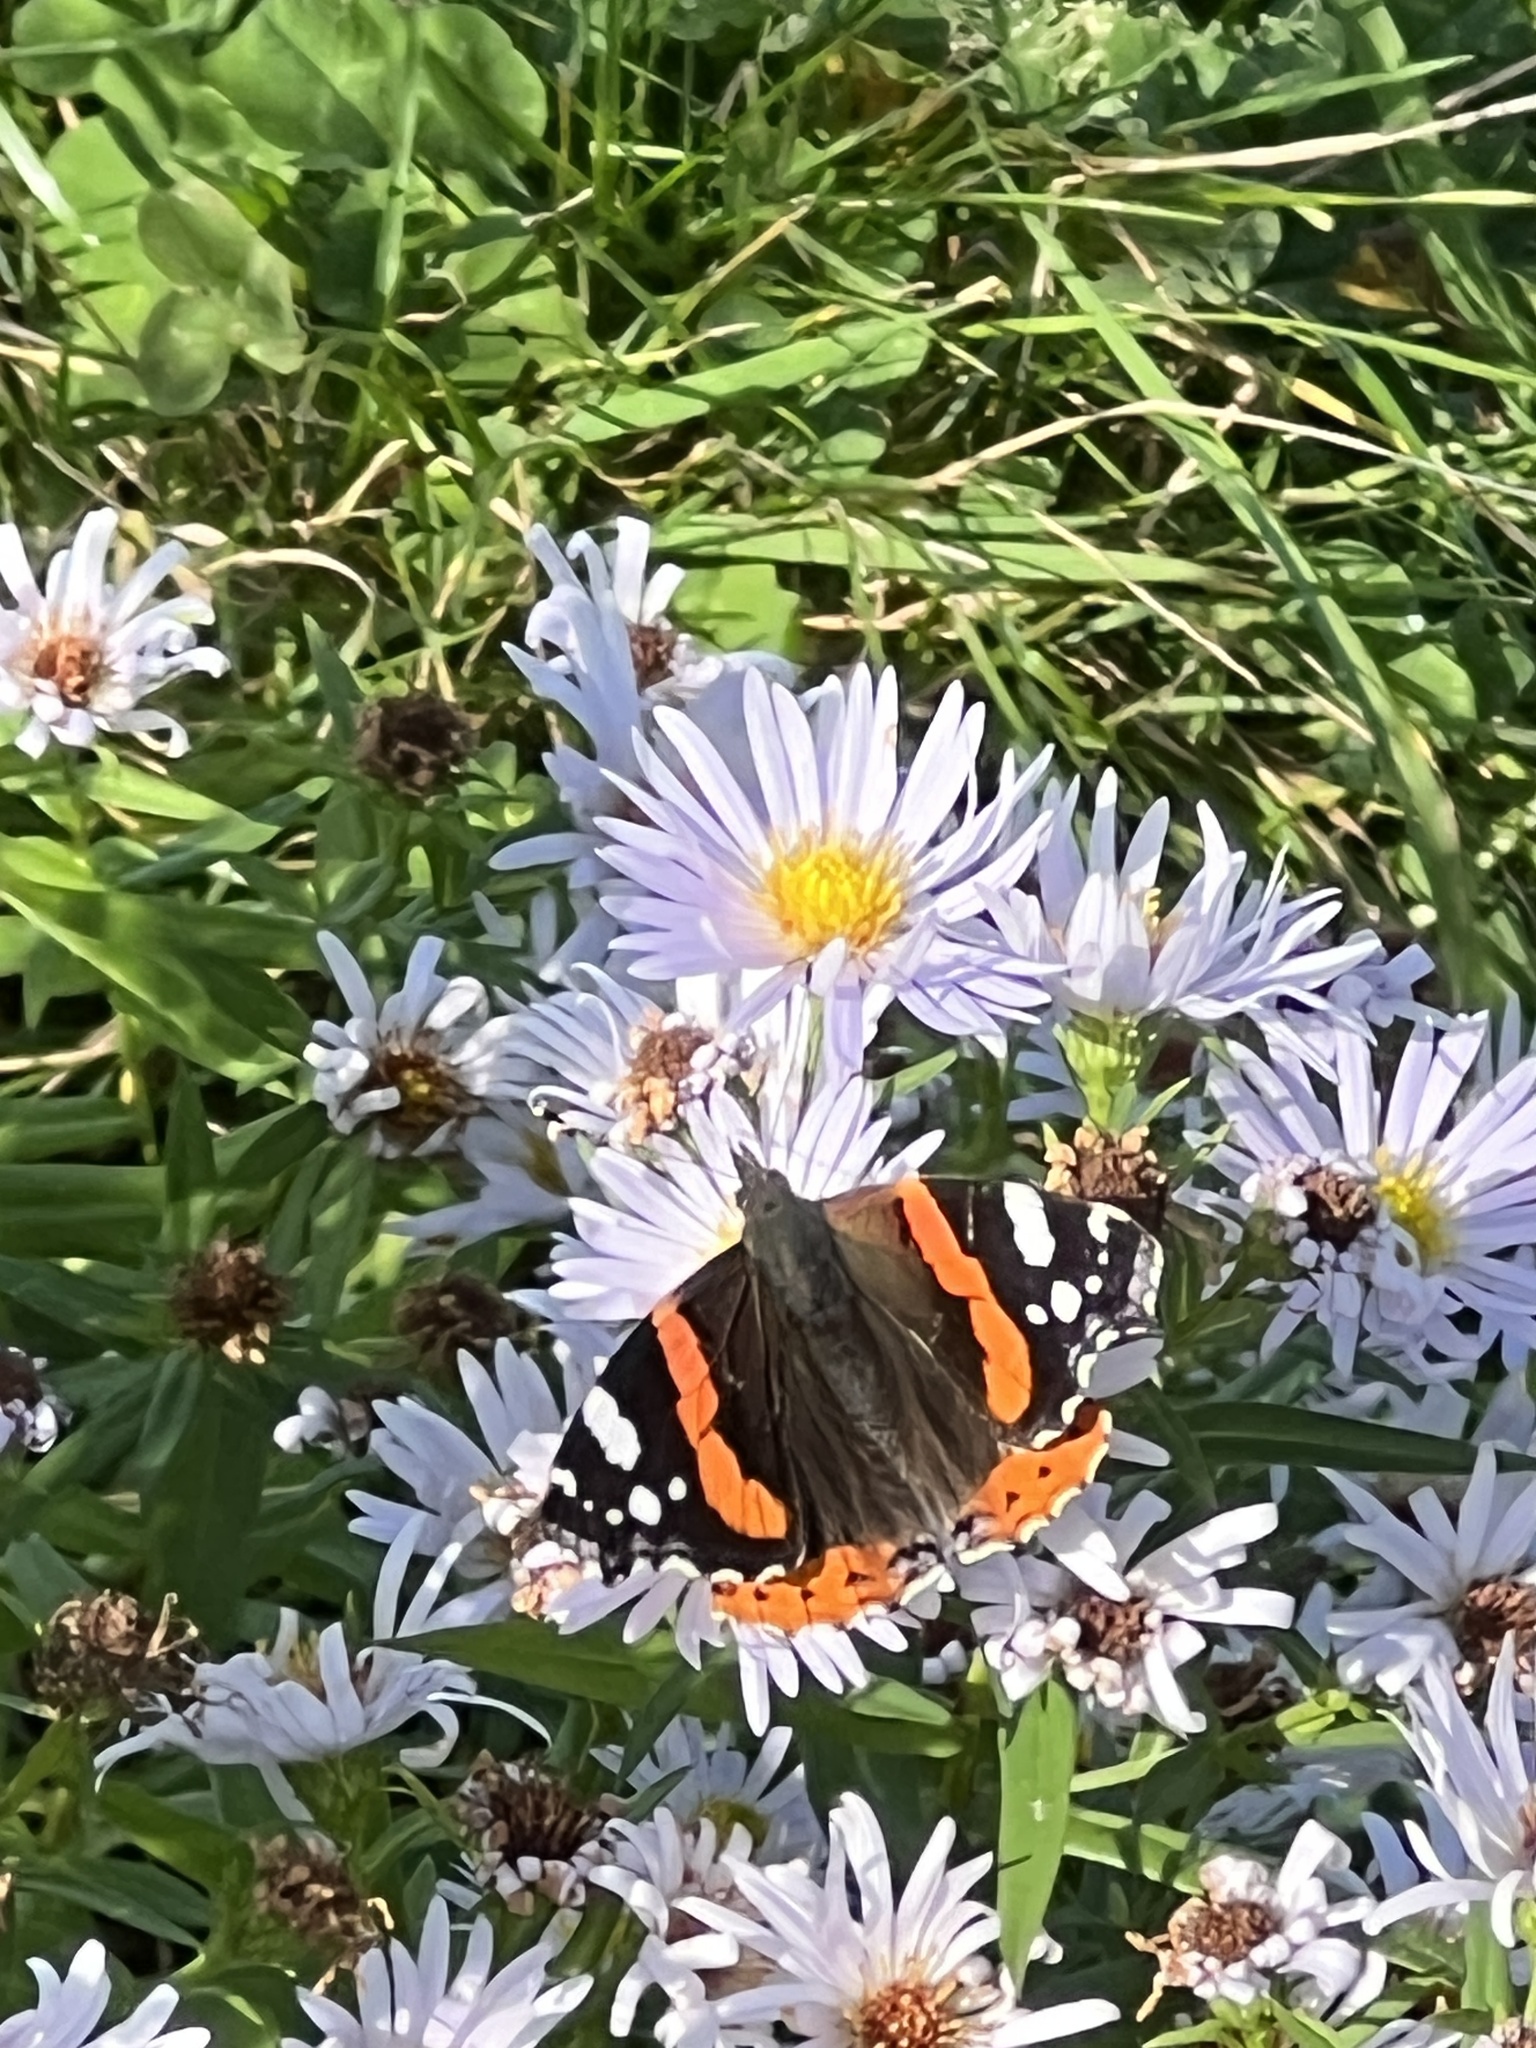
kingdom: Animalia
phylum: Arthropoda
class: Insecta
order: Lepidoptera
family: Nymphalidae
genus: Vanessa
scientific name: Vanessa atalanta
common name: Red admiral
